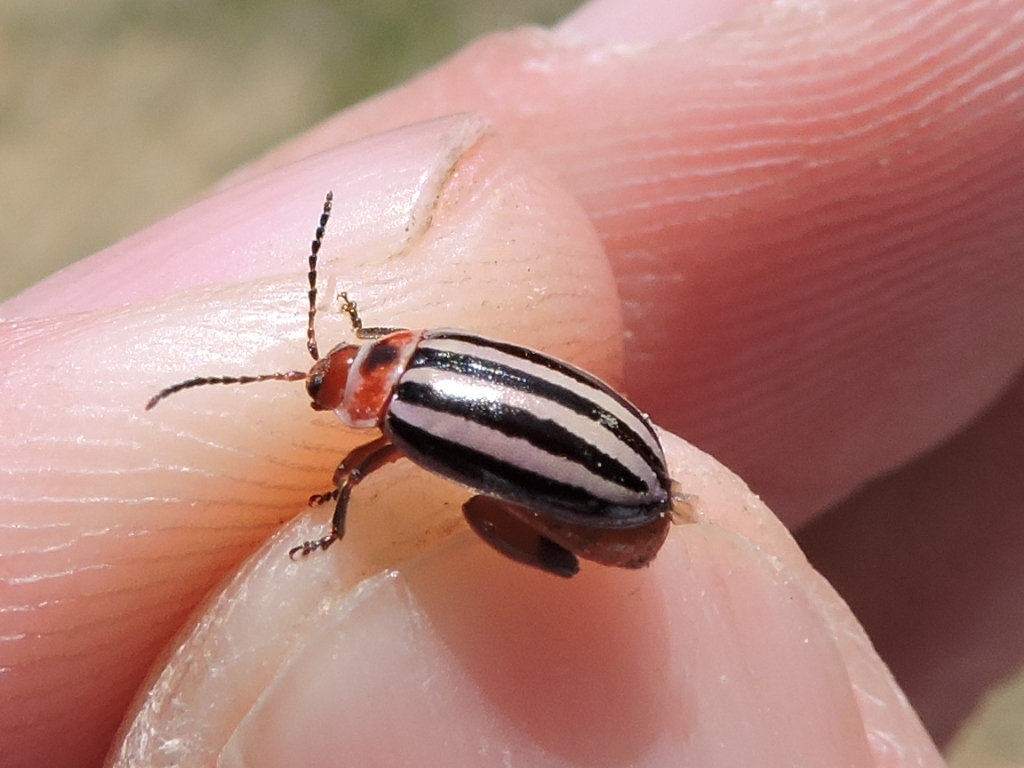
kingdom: Animalia
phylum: Arthropoda
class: Insecta
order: Coleoptera
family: Chrysomelidae
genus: Kuschelina
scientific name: Kuschelina petaurista
